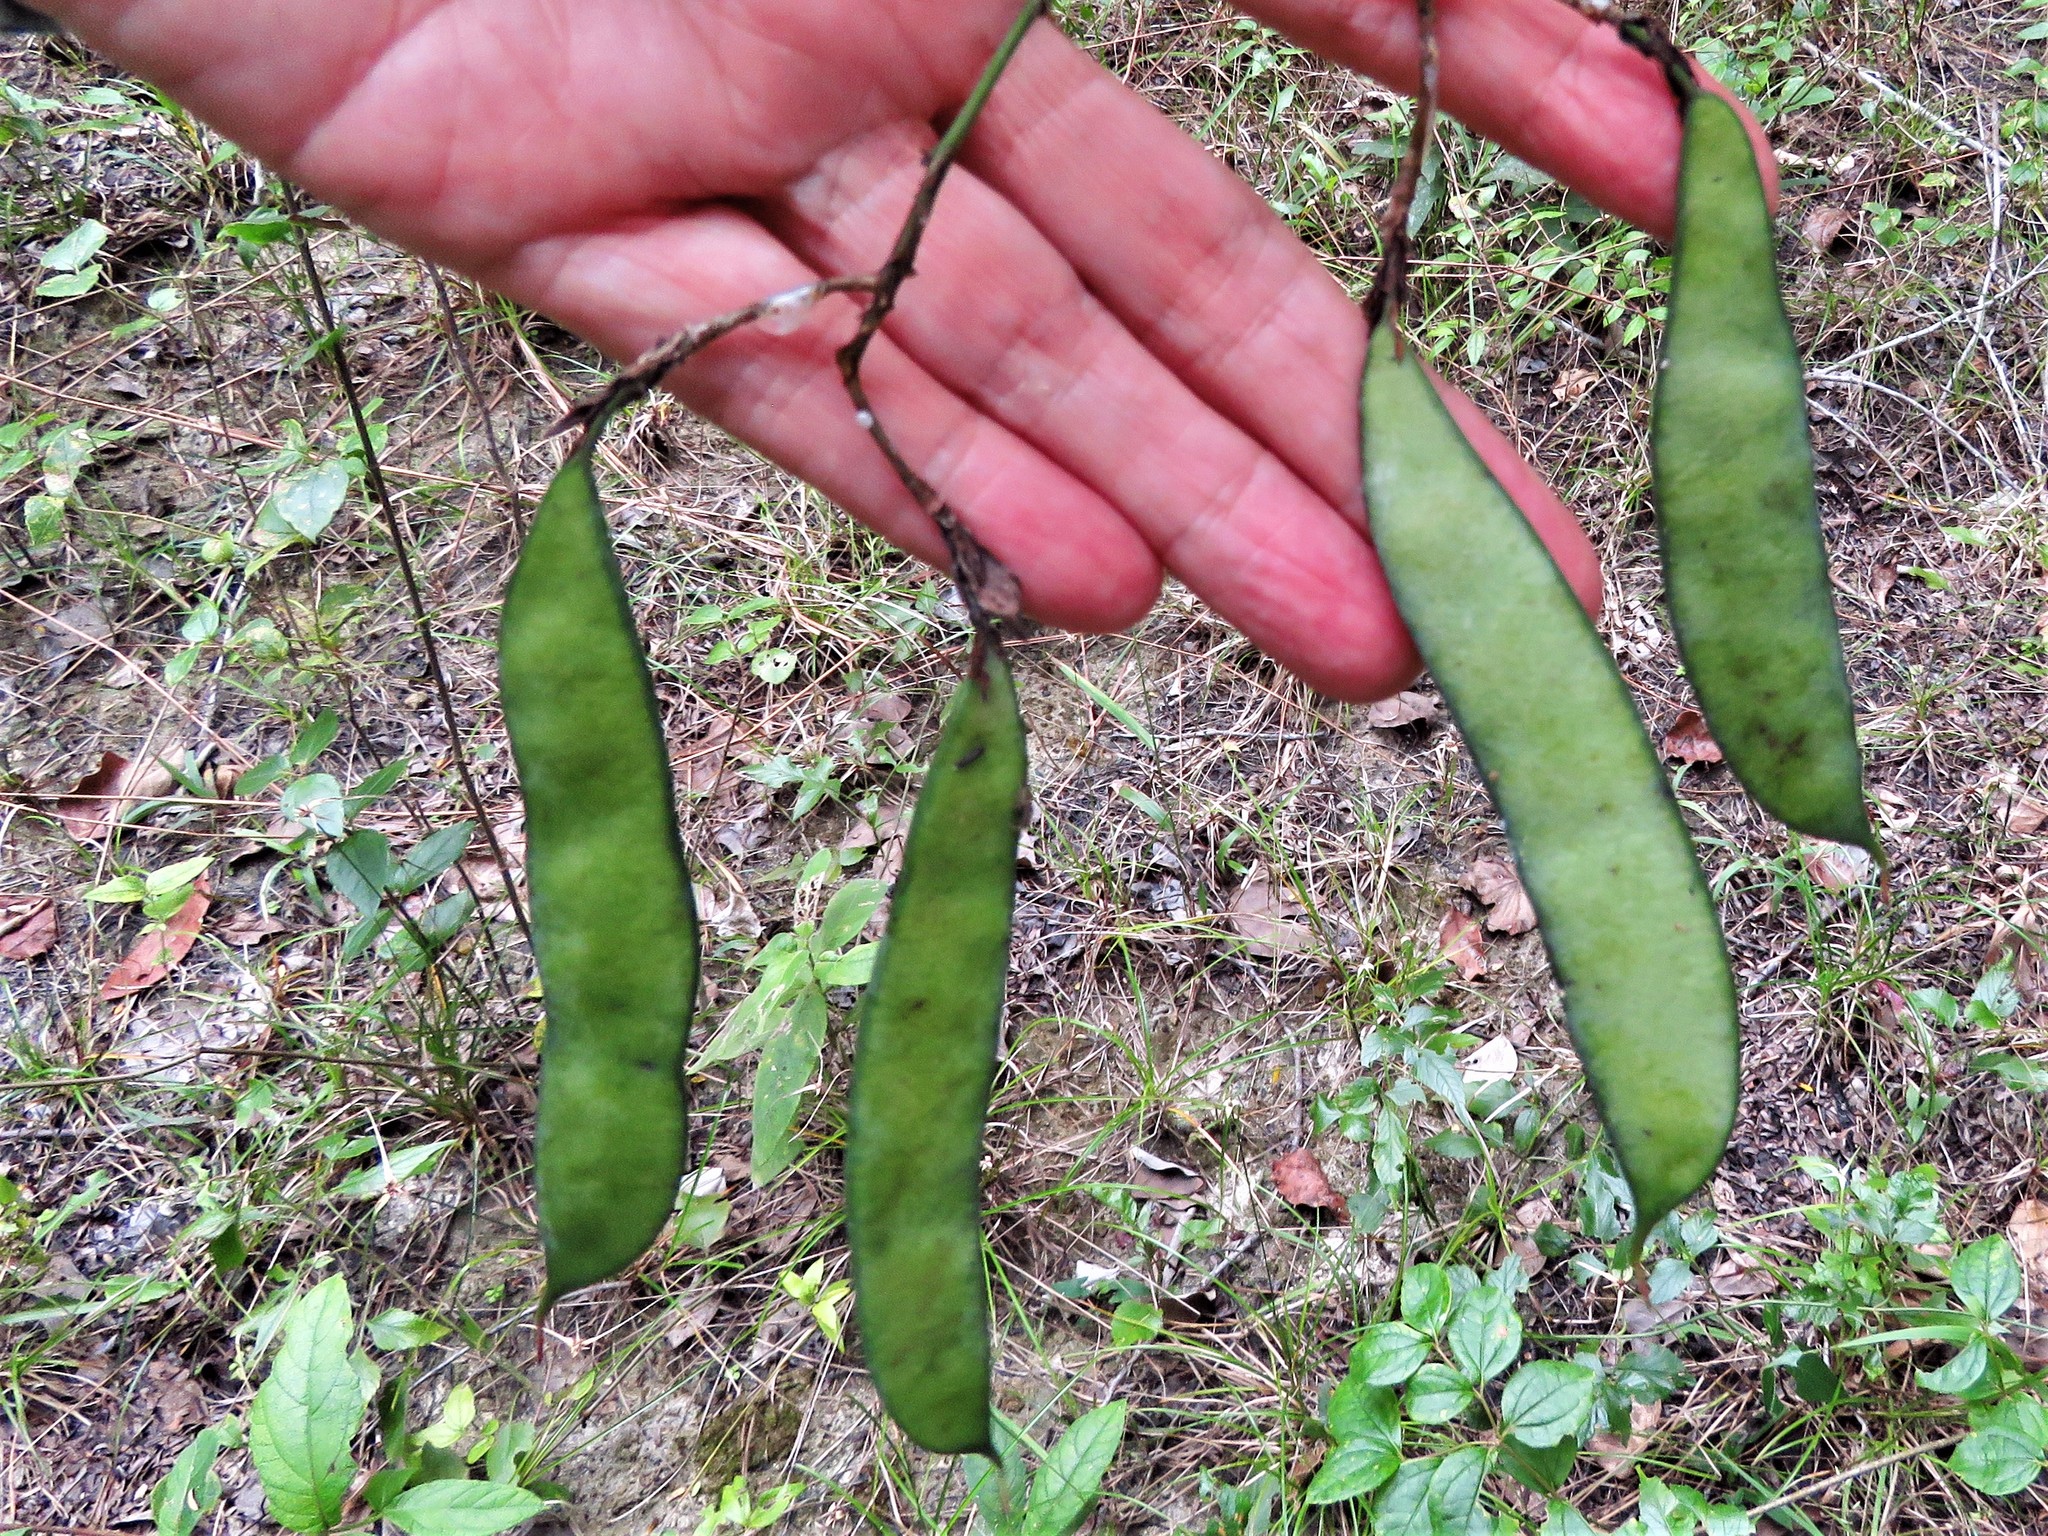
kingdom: Plantae
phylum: Tracheophyta
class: Magnoliopsida
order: Fabales
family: Fabaceae
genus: Bauhinia
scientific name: Bauhinia erythrocalyx
